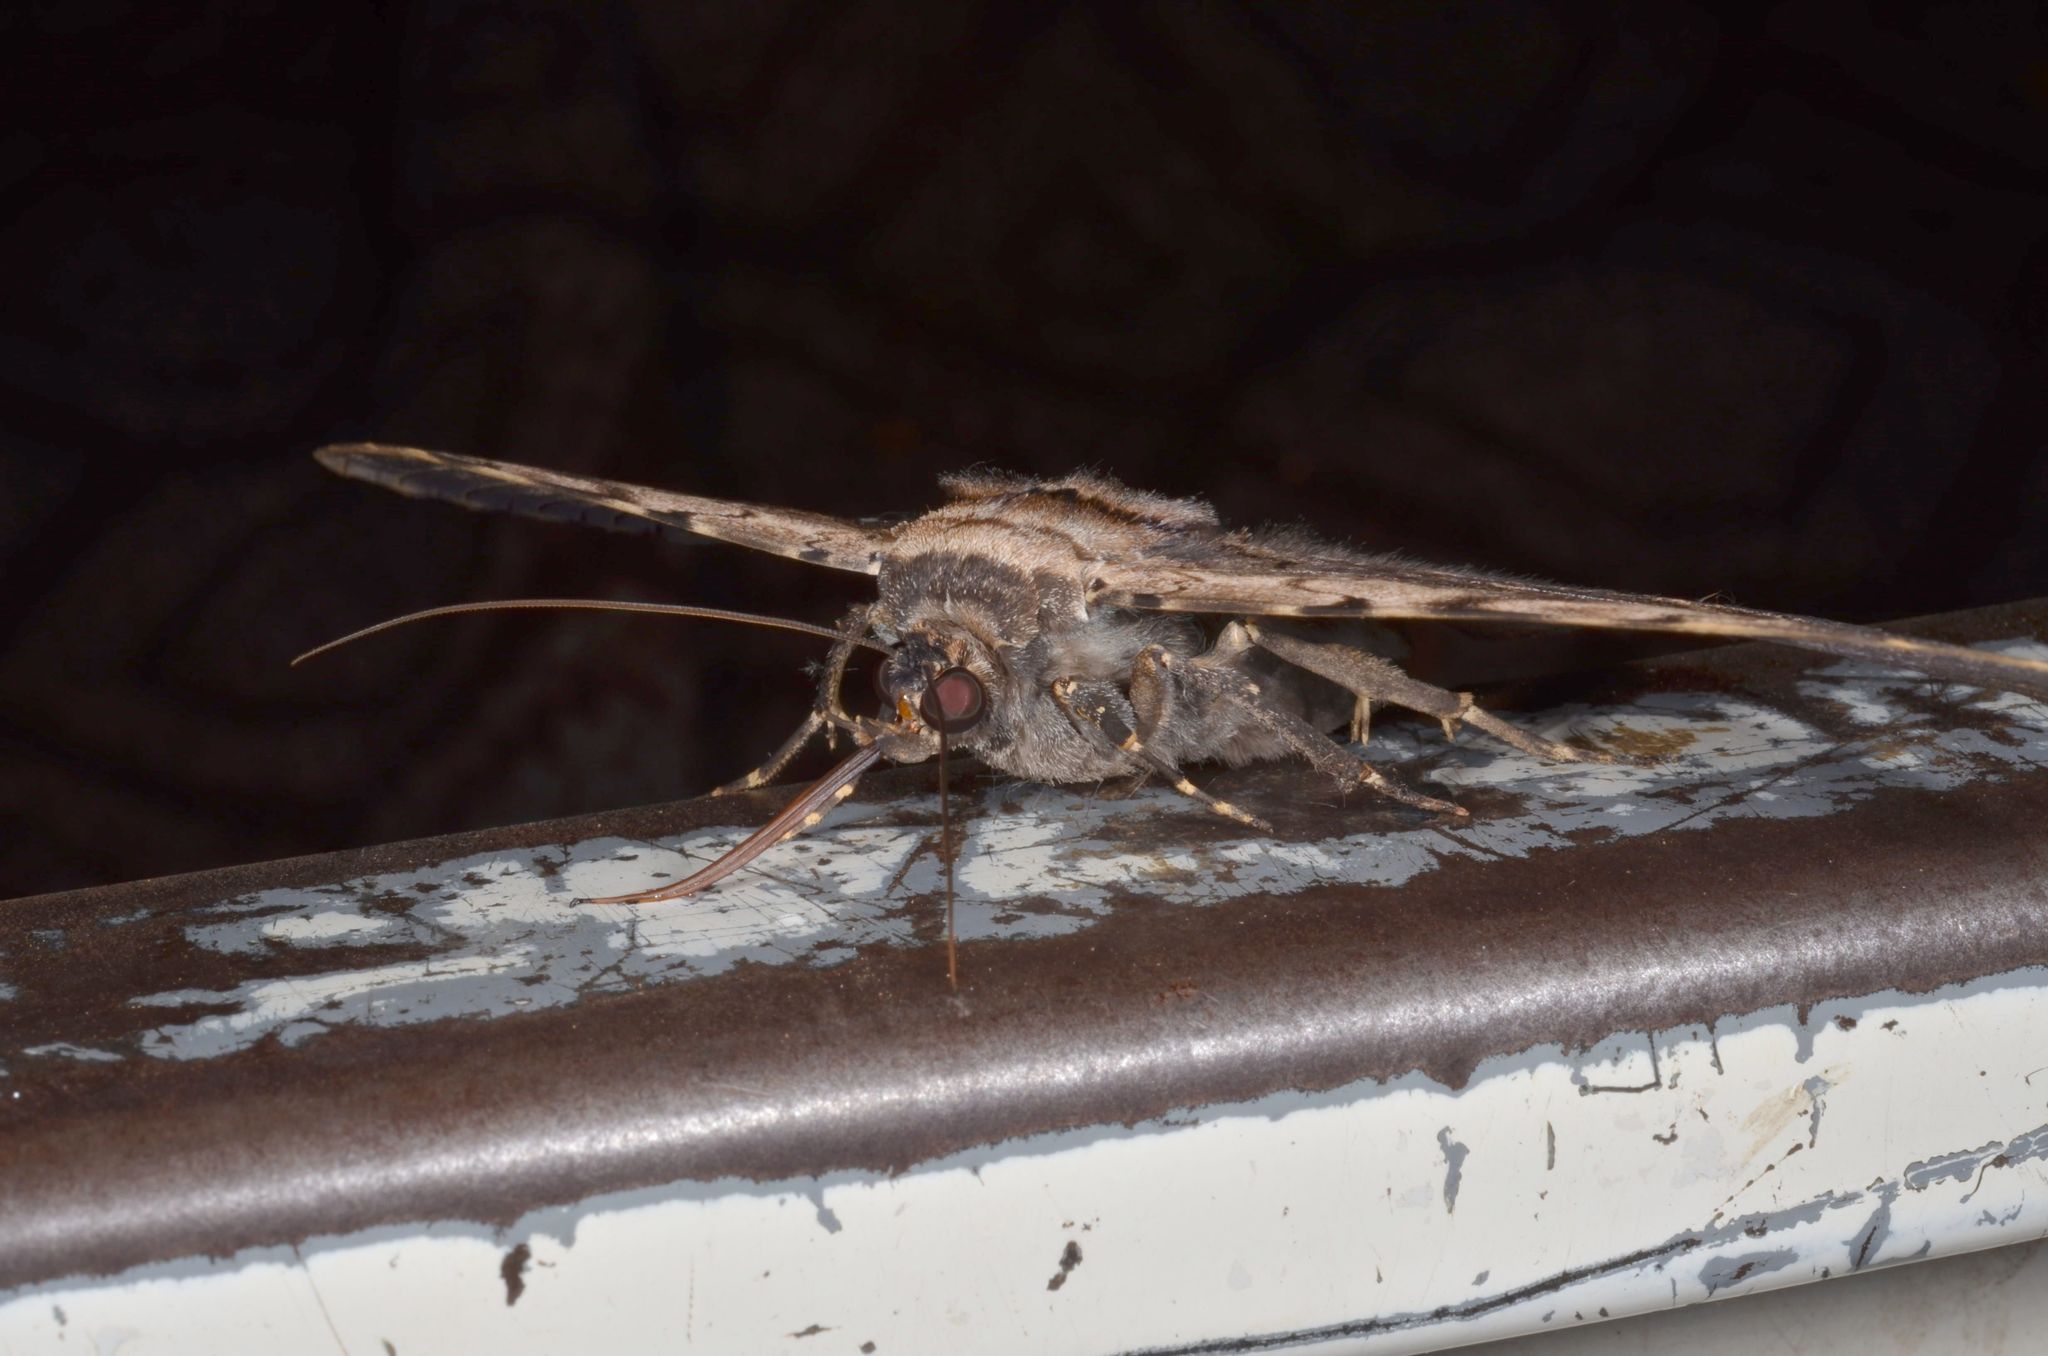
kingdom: Animalia
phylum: Arthropoda
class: Insecta
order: Lepidoptera
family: Erebidae
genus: Anisoneura
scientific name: Anisoneura aluco
